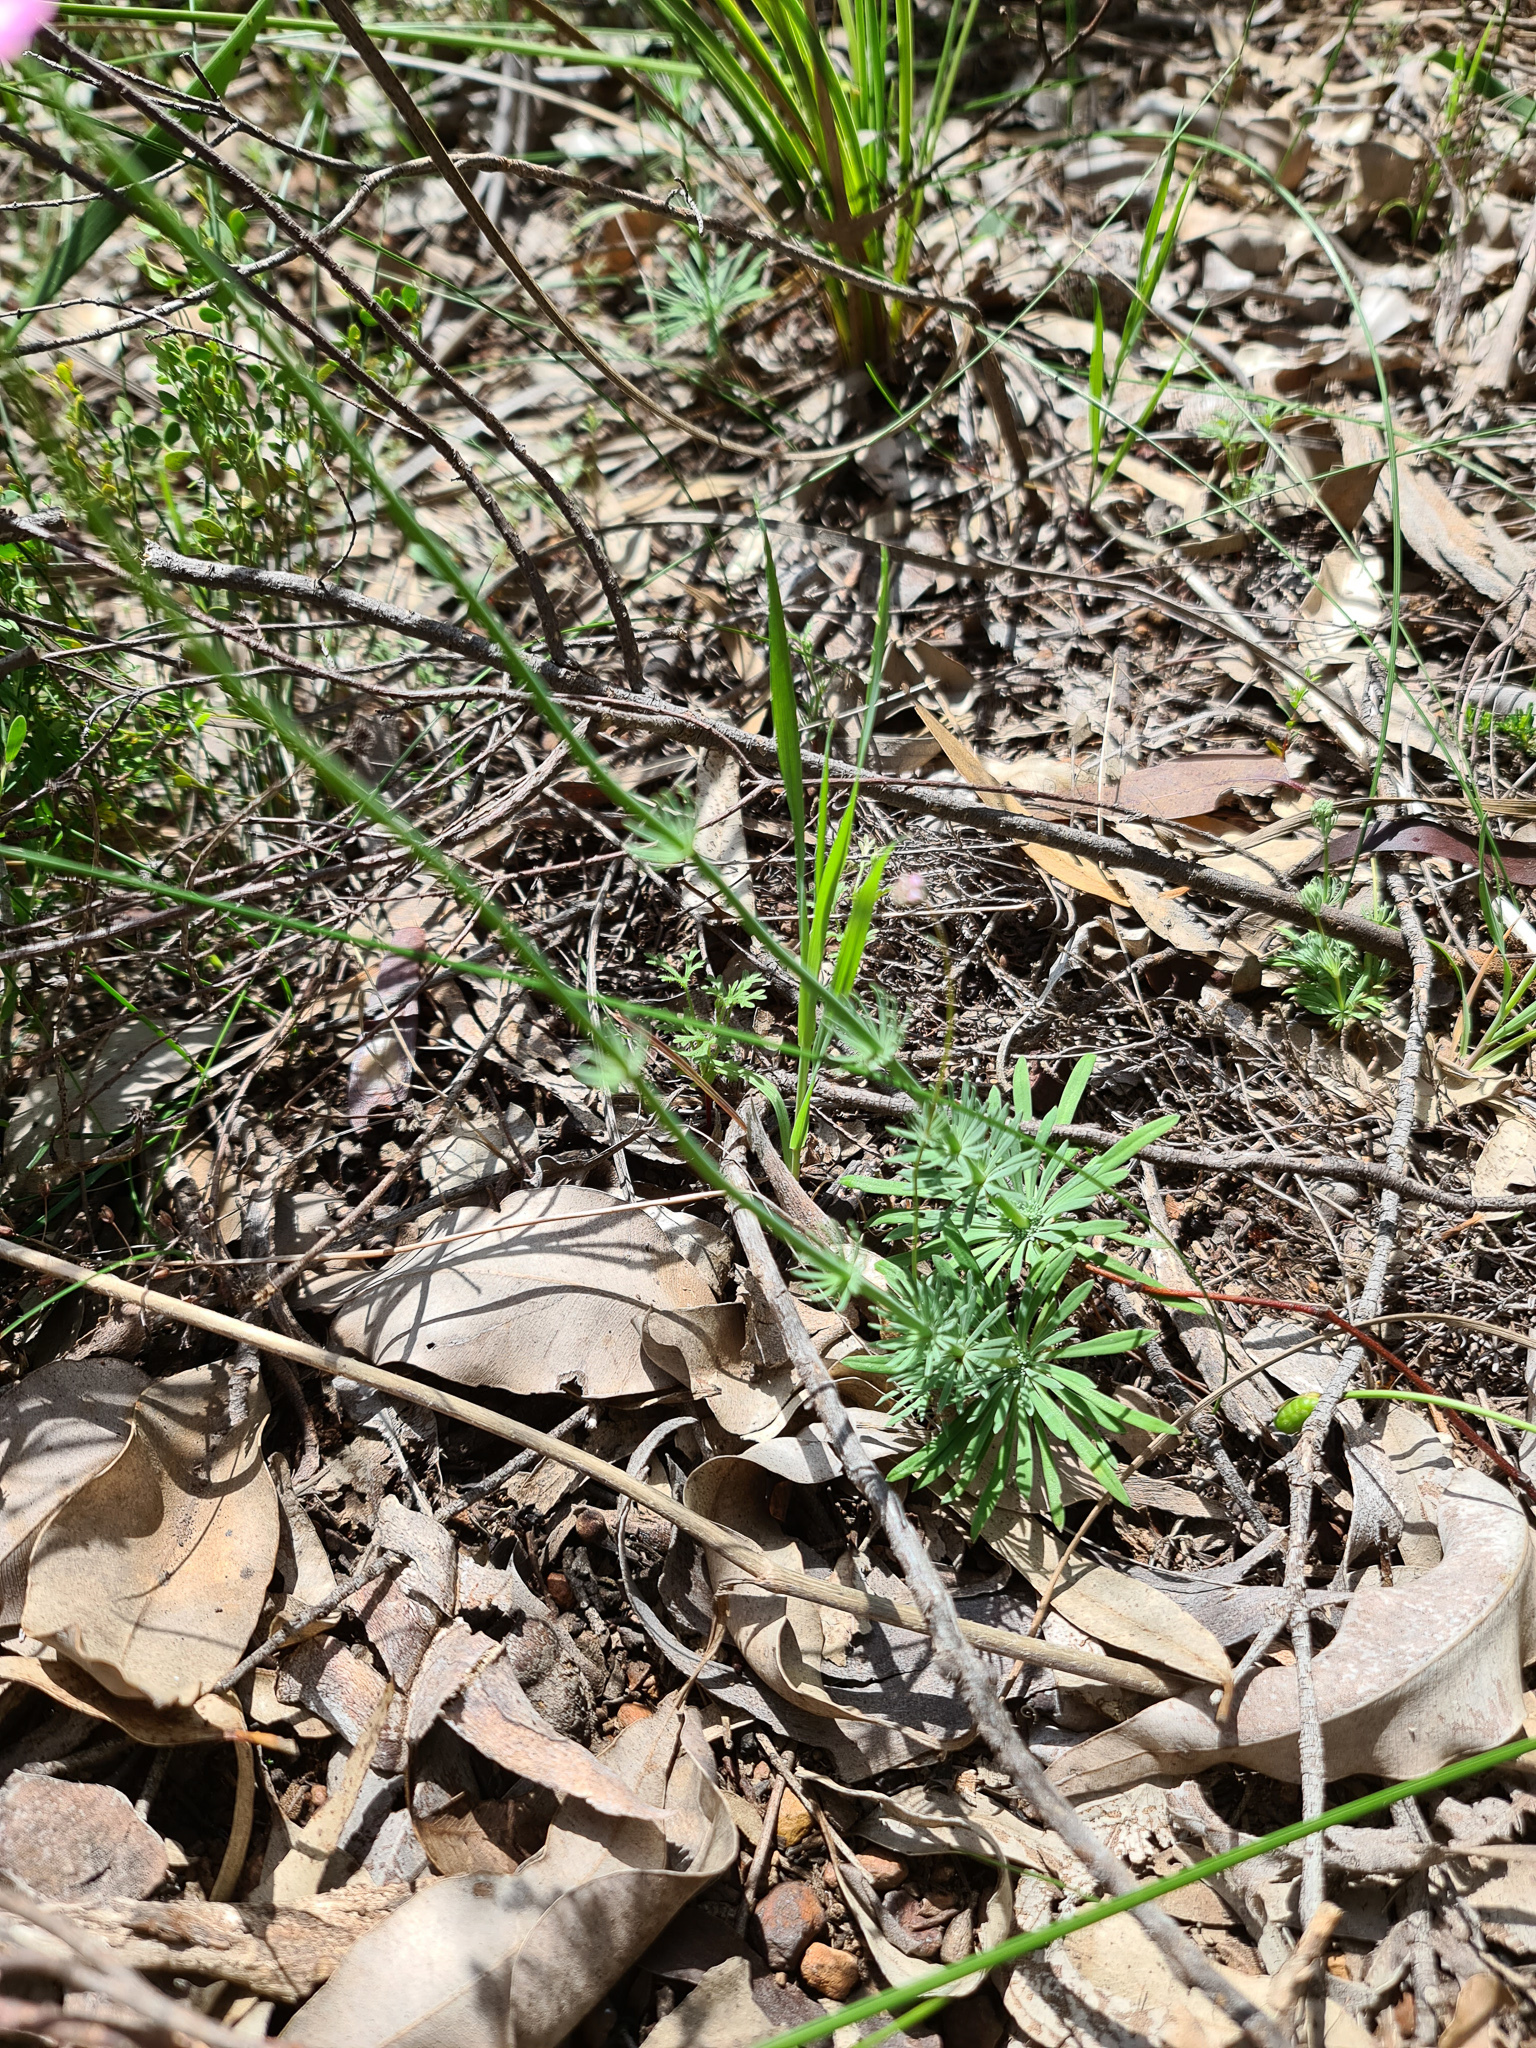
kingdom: Plantae
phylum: Tracheophyta
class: Magnoliopsida
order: Asterales
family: Stylidiaceae
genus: Stylidium
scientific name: Stylidium brunonianum
